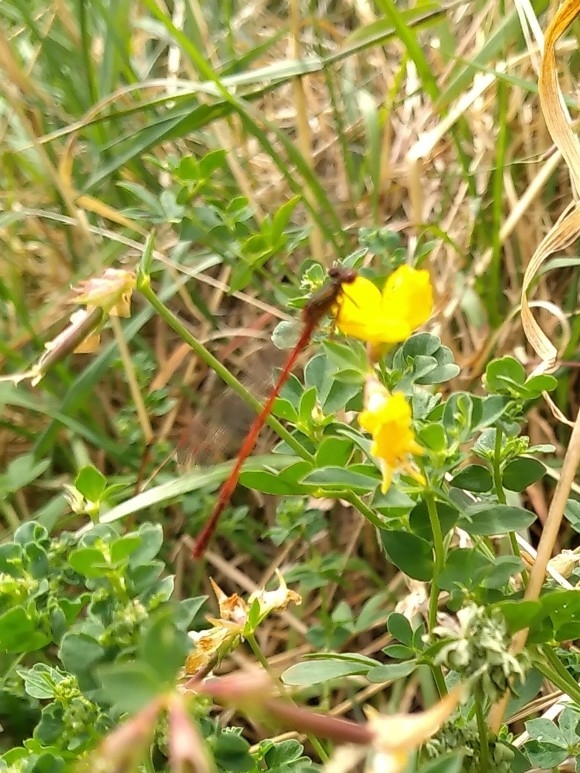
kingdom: Animalia
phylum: Arthropoda
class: Insecta
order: Odonata
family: Coenagrionidae
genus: Xanthocnemis
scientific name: Xanthocnemis zealandica
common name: Common redcoat damselfly
